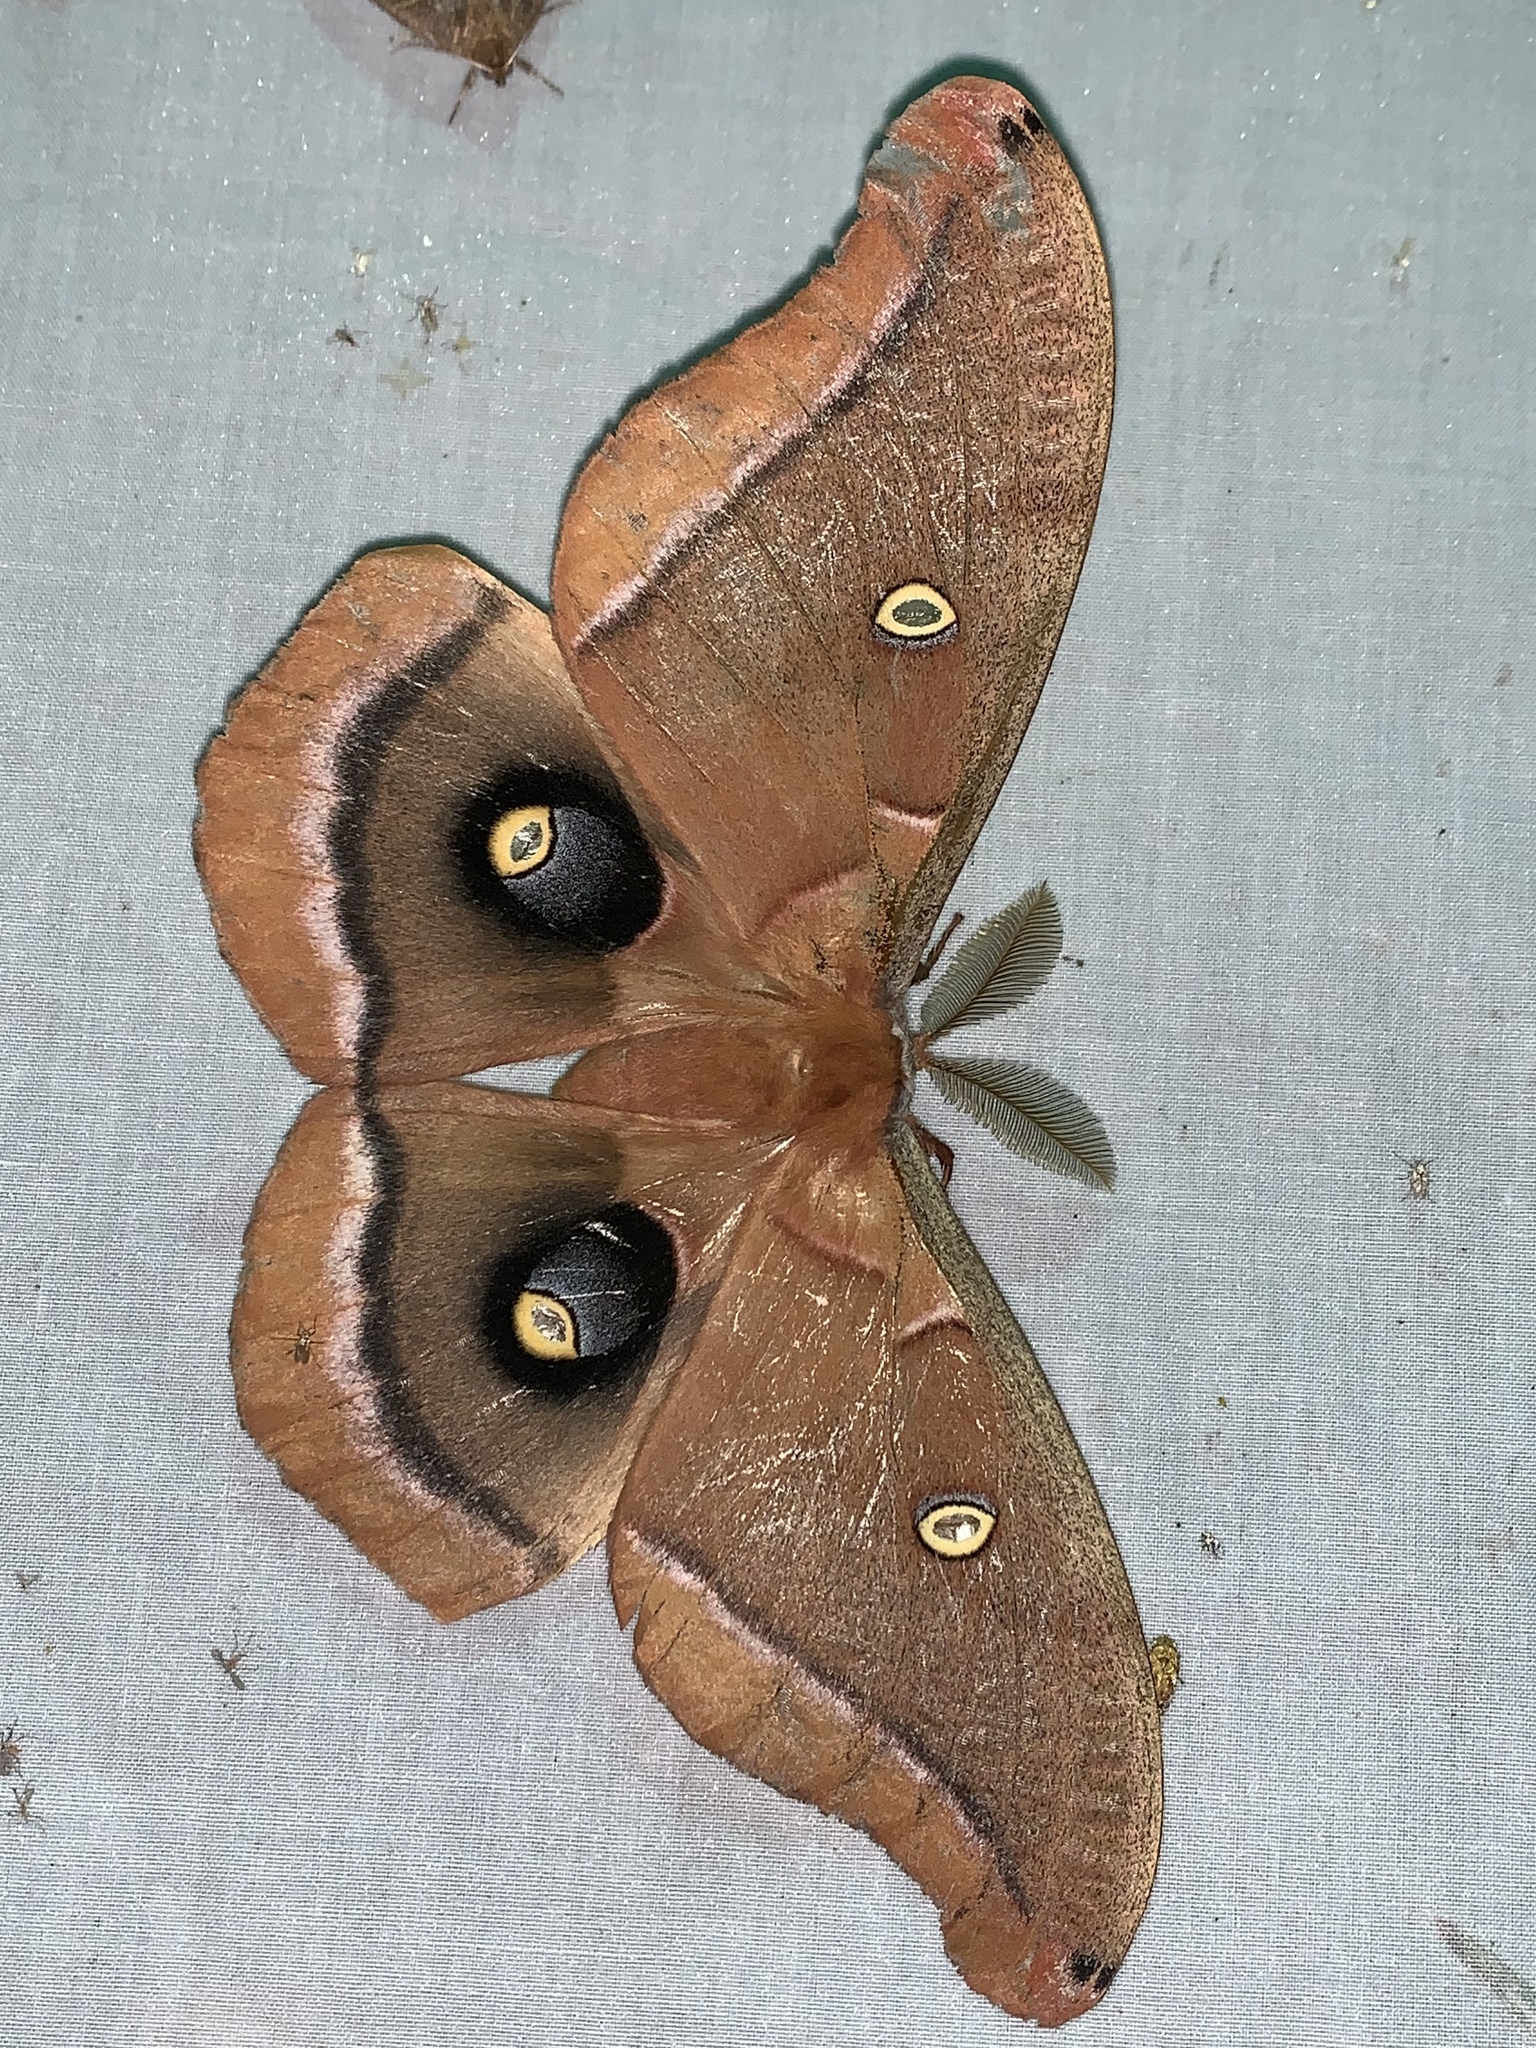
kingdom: Animalia
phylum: Arthropoda
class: Insecta
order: Lepidoptera
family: Saturniidae
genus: Antheraea
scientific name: Antheraea polyphemus
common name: Polyphemus moth
